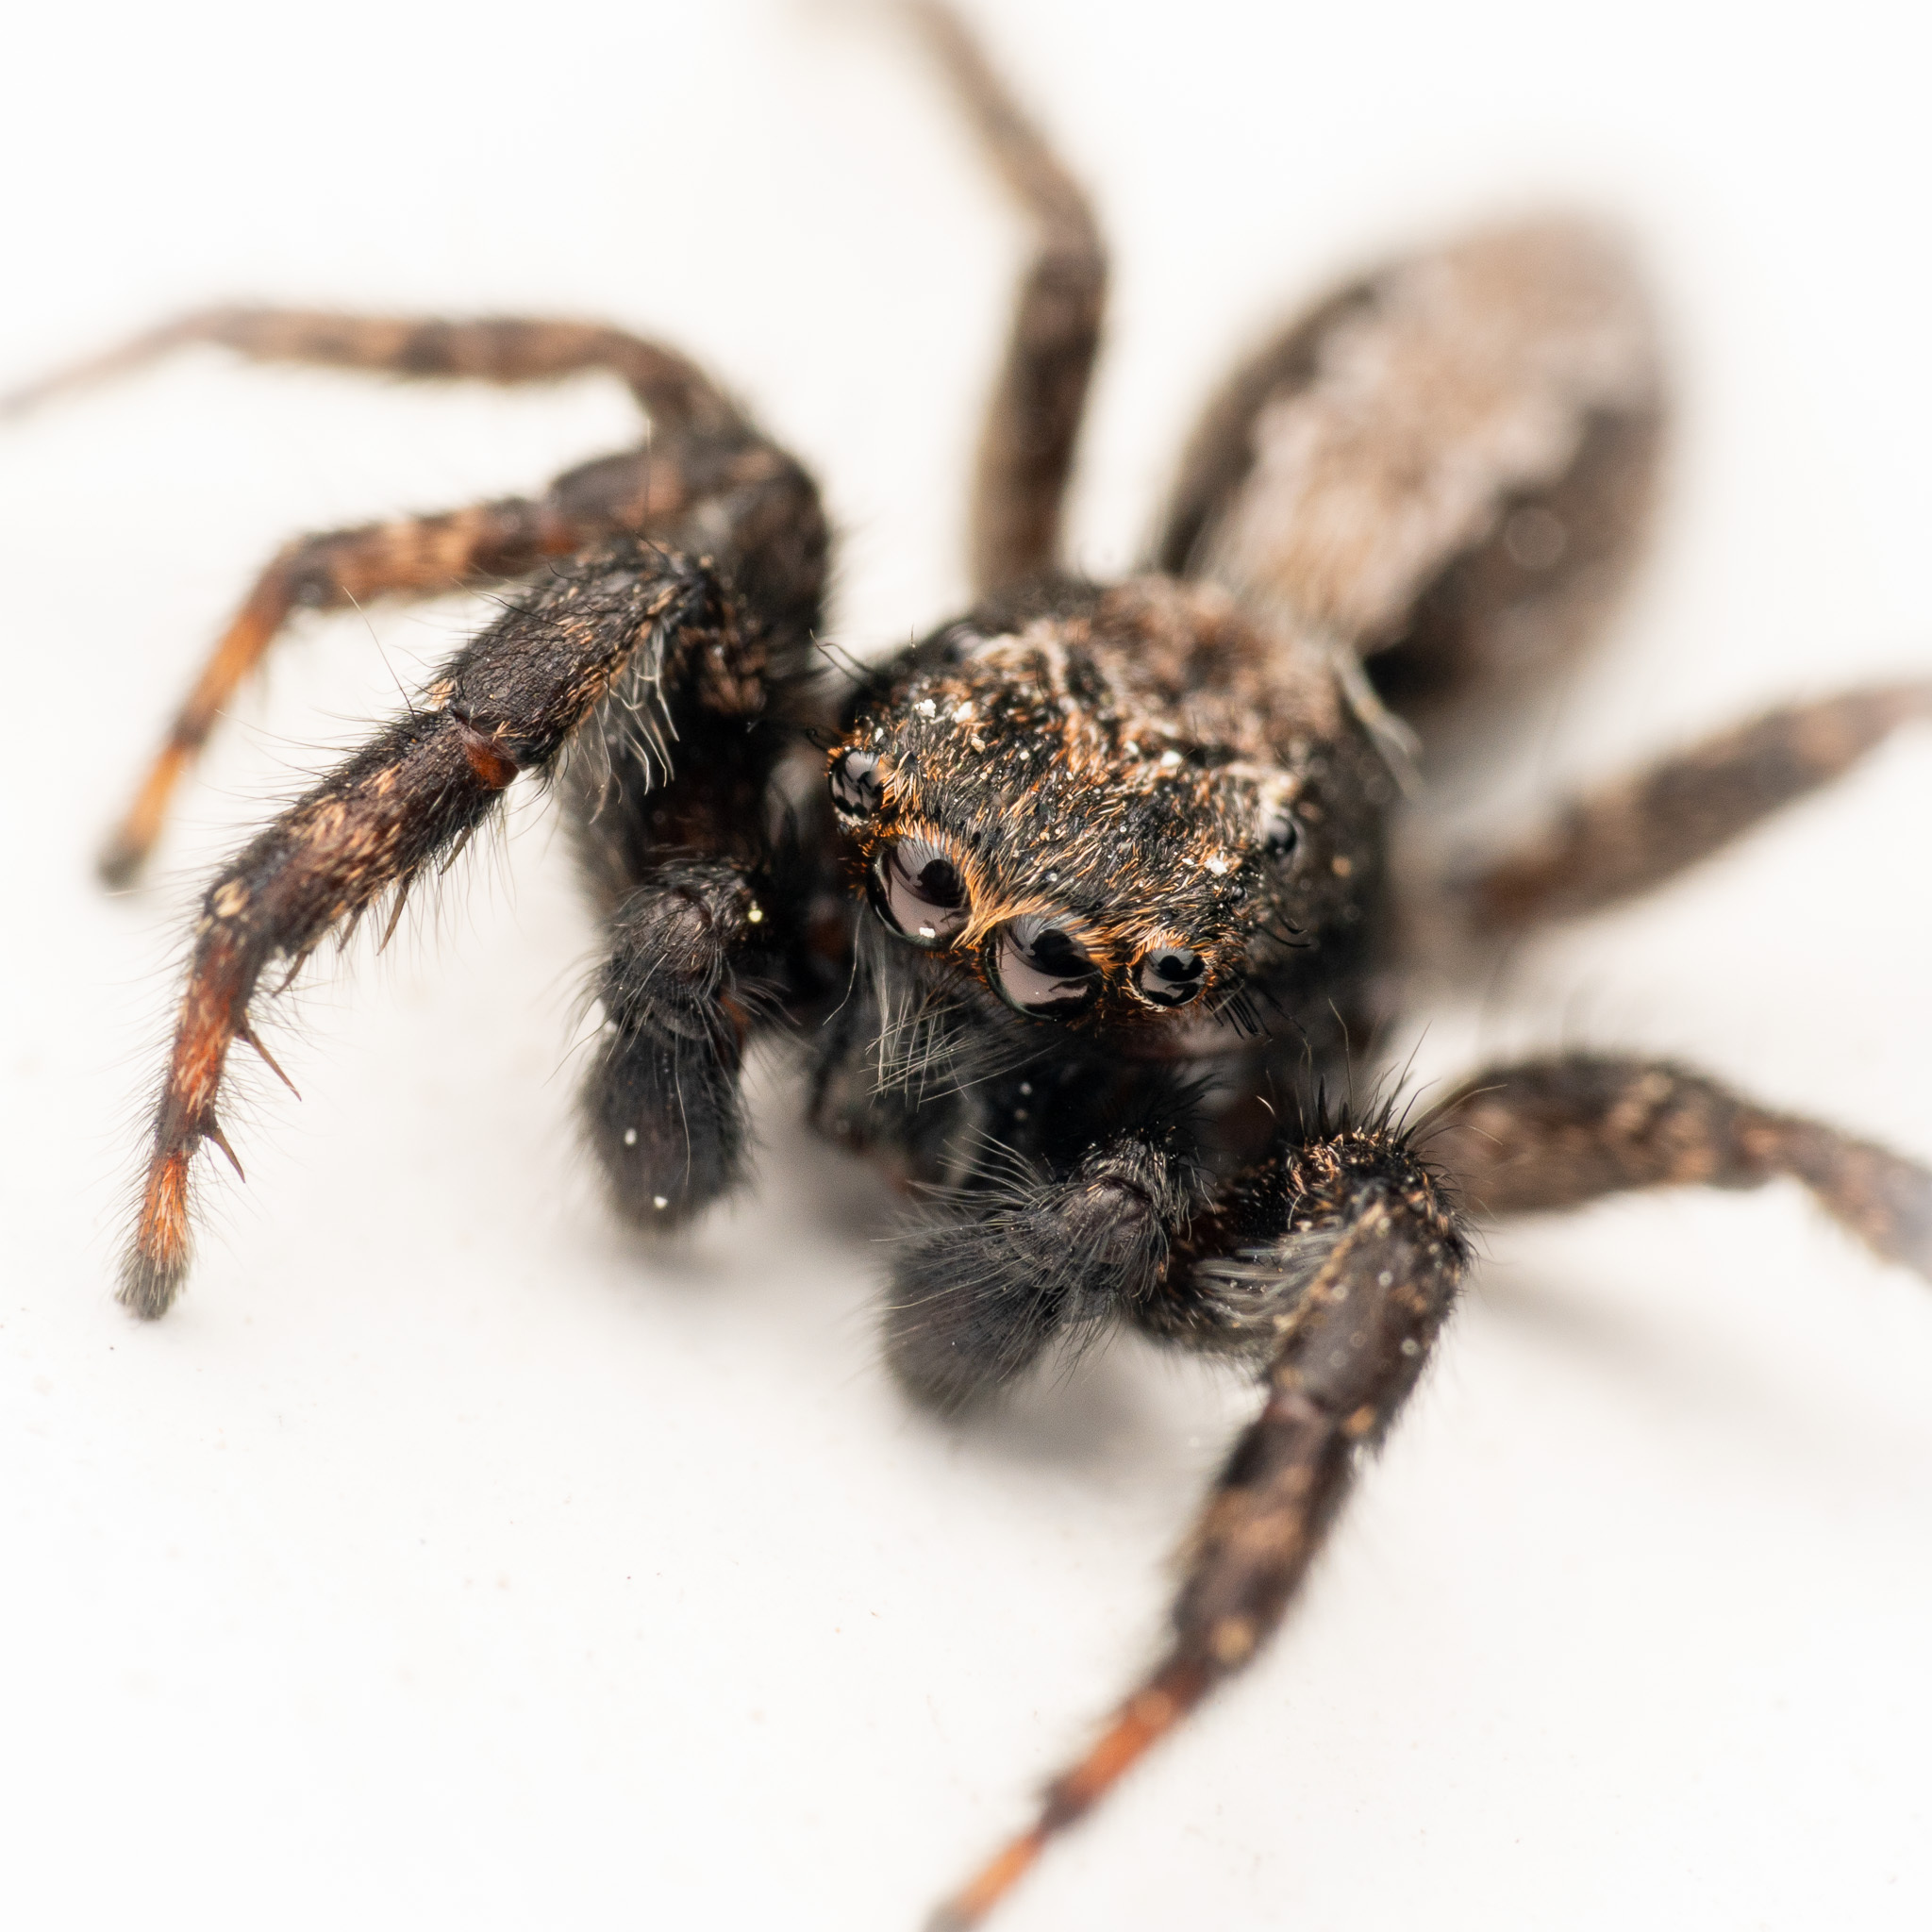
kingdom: Animalia
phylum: Arthropoda
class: Arachnida
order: Araneae
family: Salticidae
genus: Platycryptus
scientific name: Platycryptus californicus
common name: Jumping spiders
